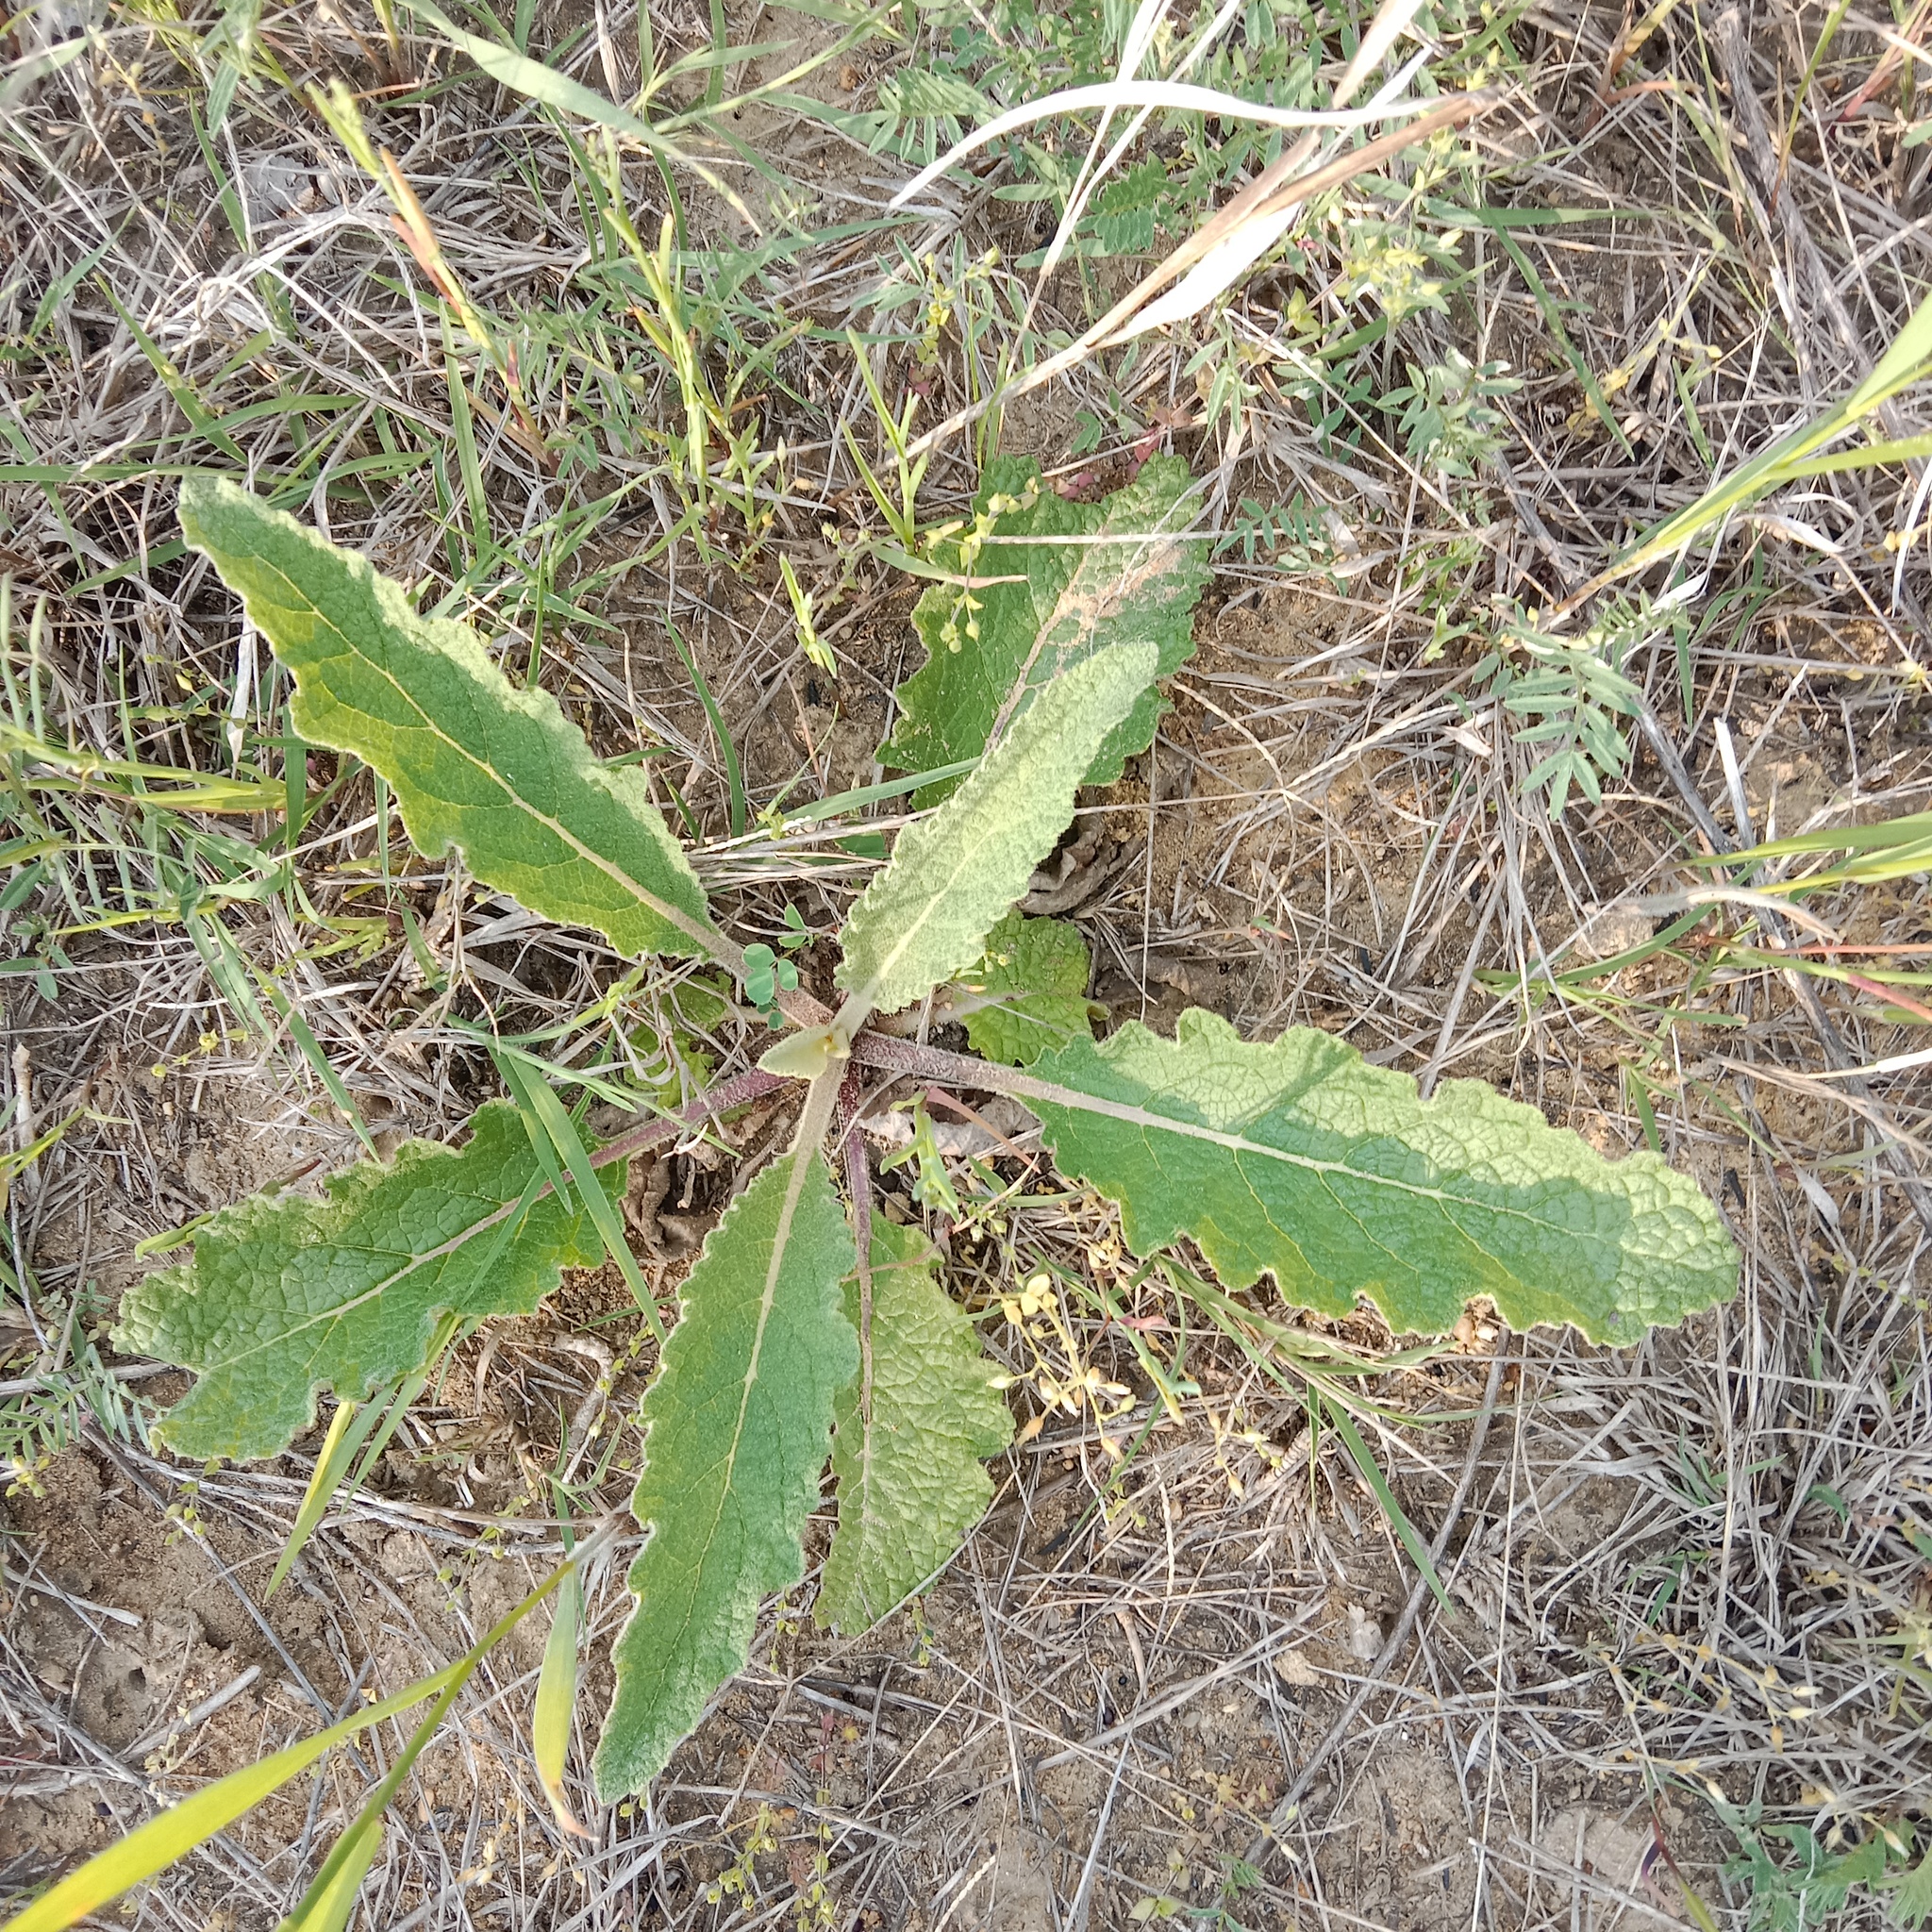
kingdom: Plantae
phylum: Tracheophyta
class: Magnoliopsida
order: Lamiales
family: Scrophulariaceae
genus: Verbascum
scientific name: Verbascum lychnitis
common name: White mullein
